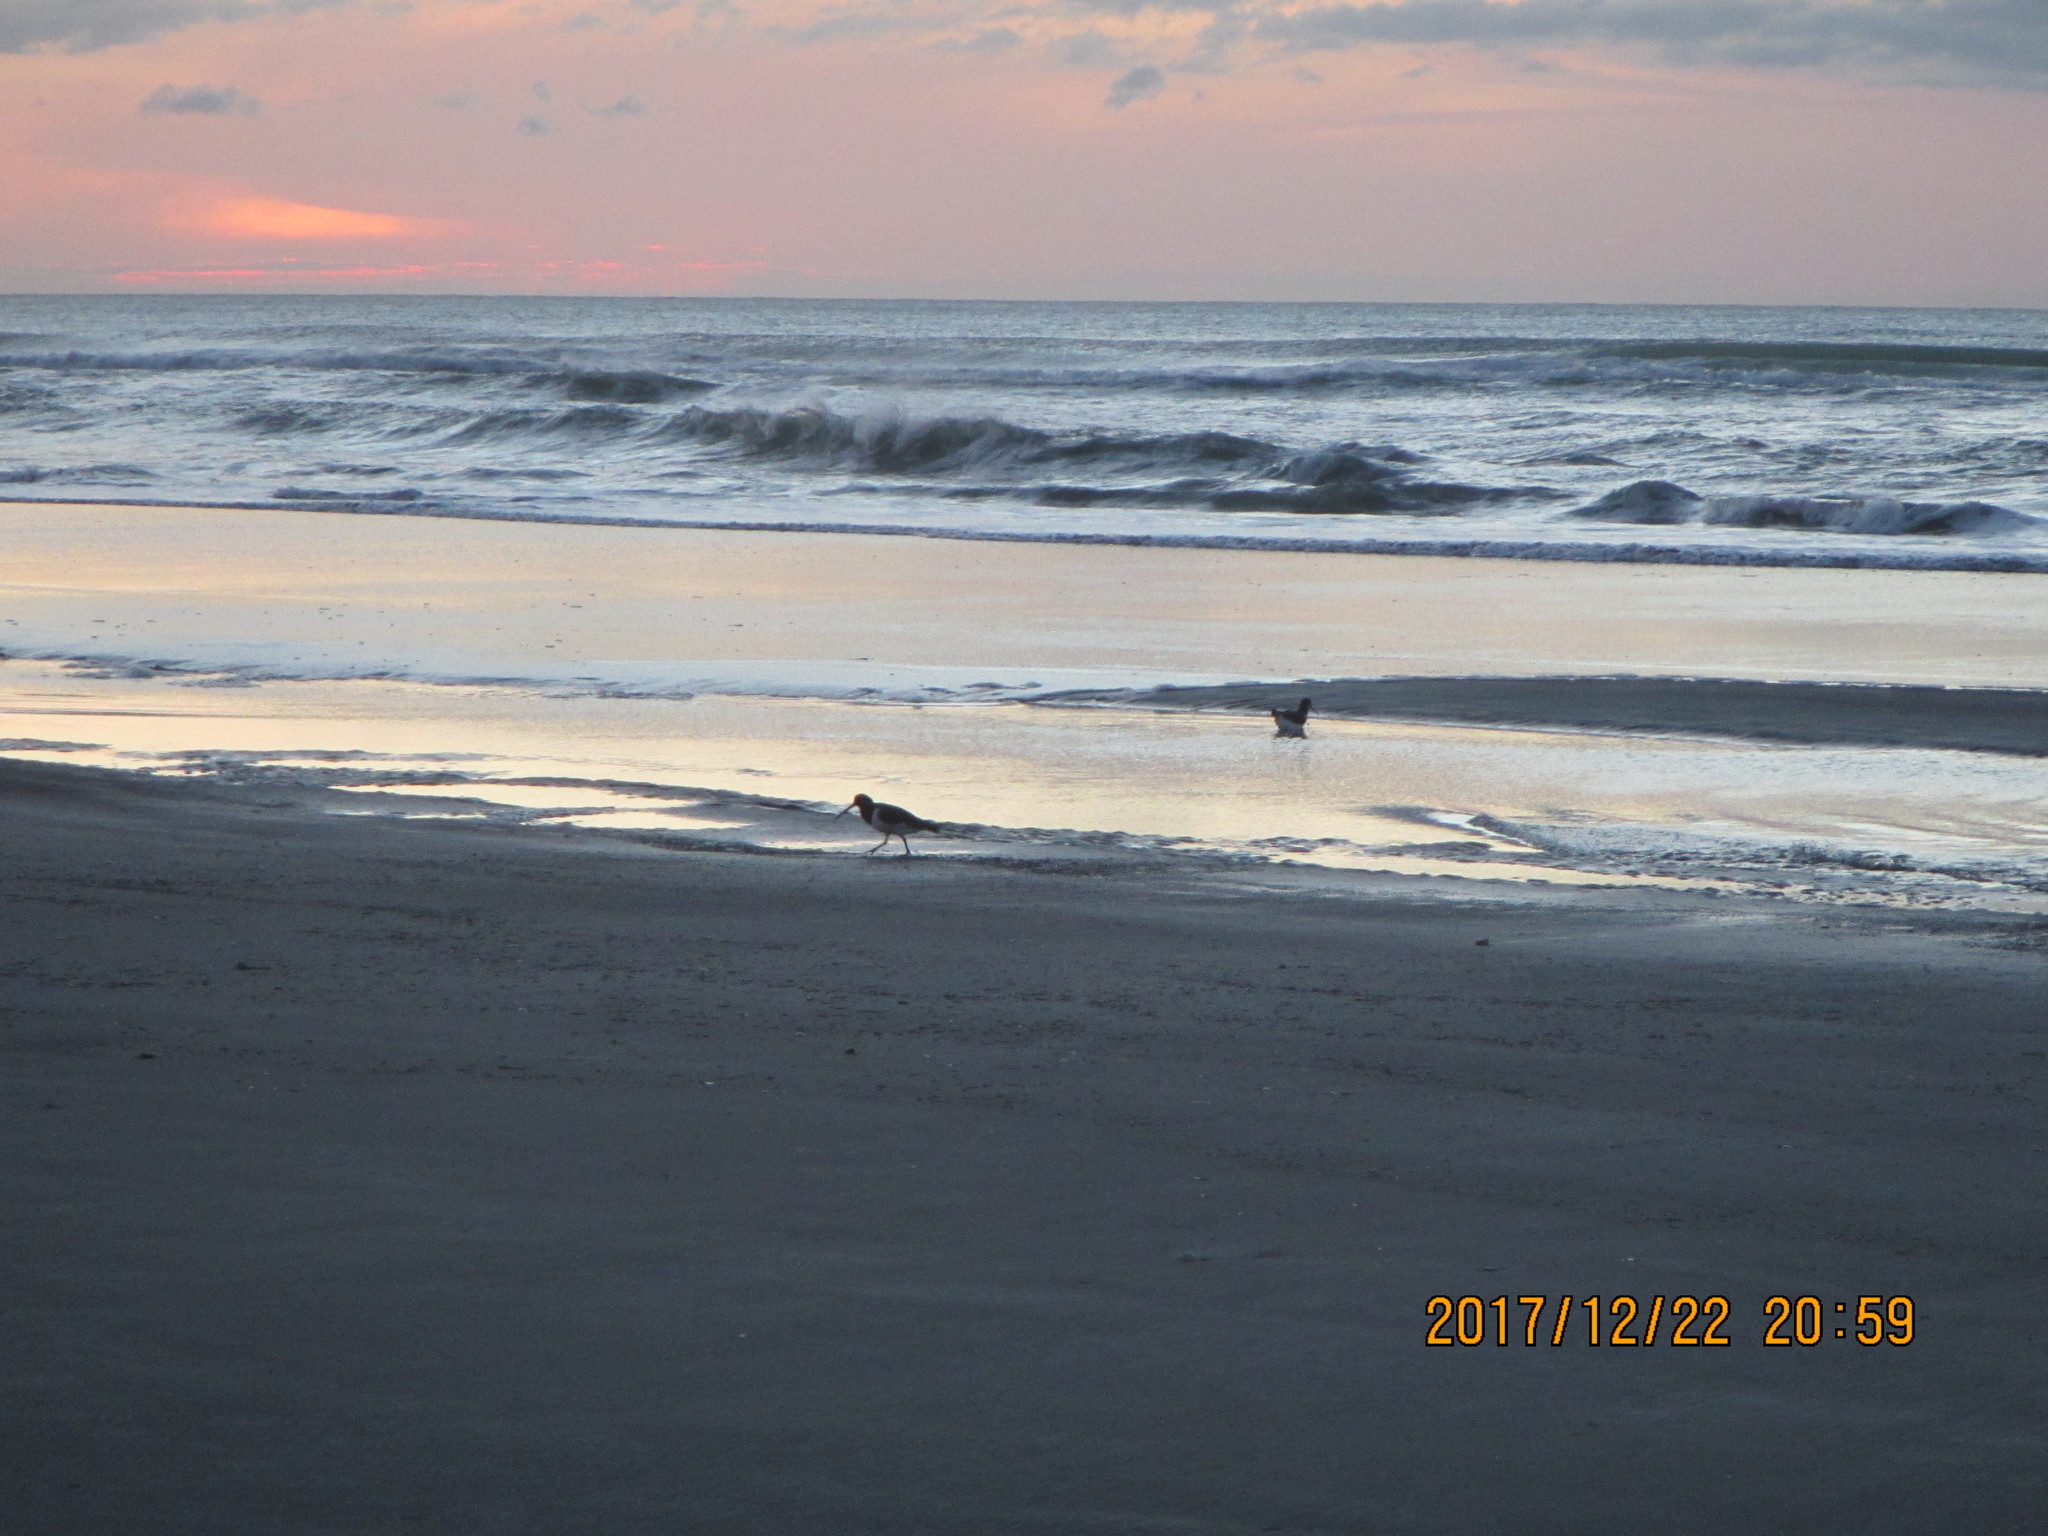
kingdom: Animalia
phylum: Chordata
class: Aves
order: Charadriiformes
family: Haematopodidae
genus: Haematopus
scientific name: Haematopus finschi
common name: South island oystercatcher
